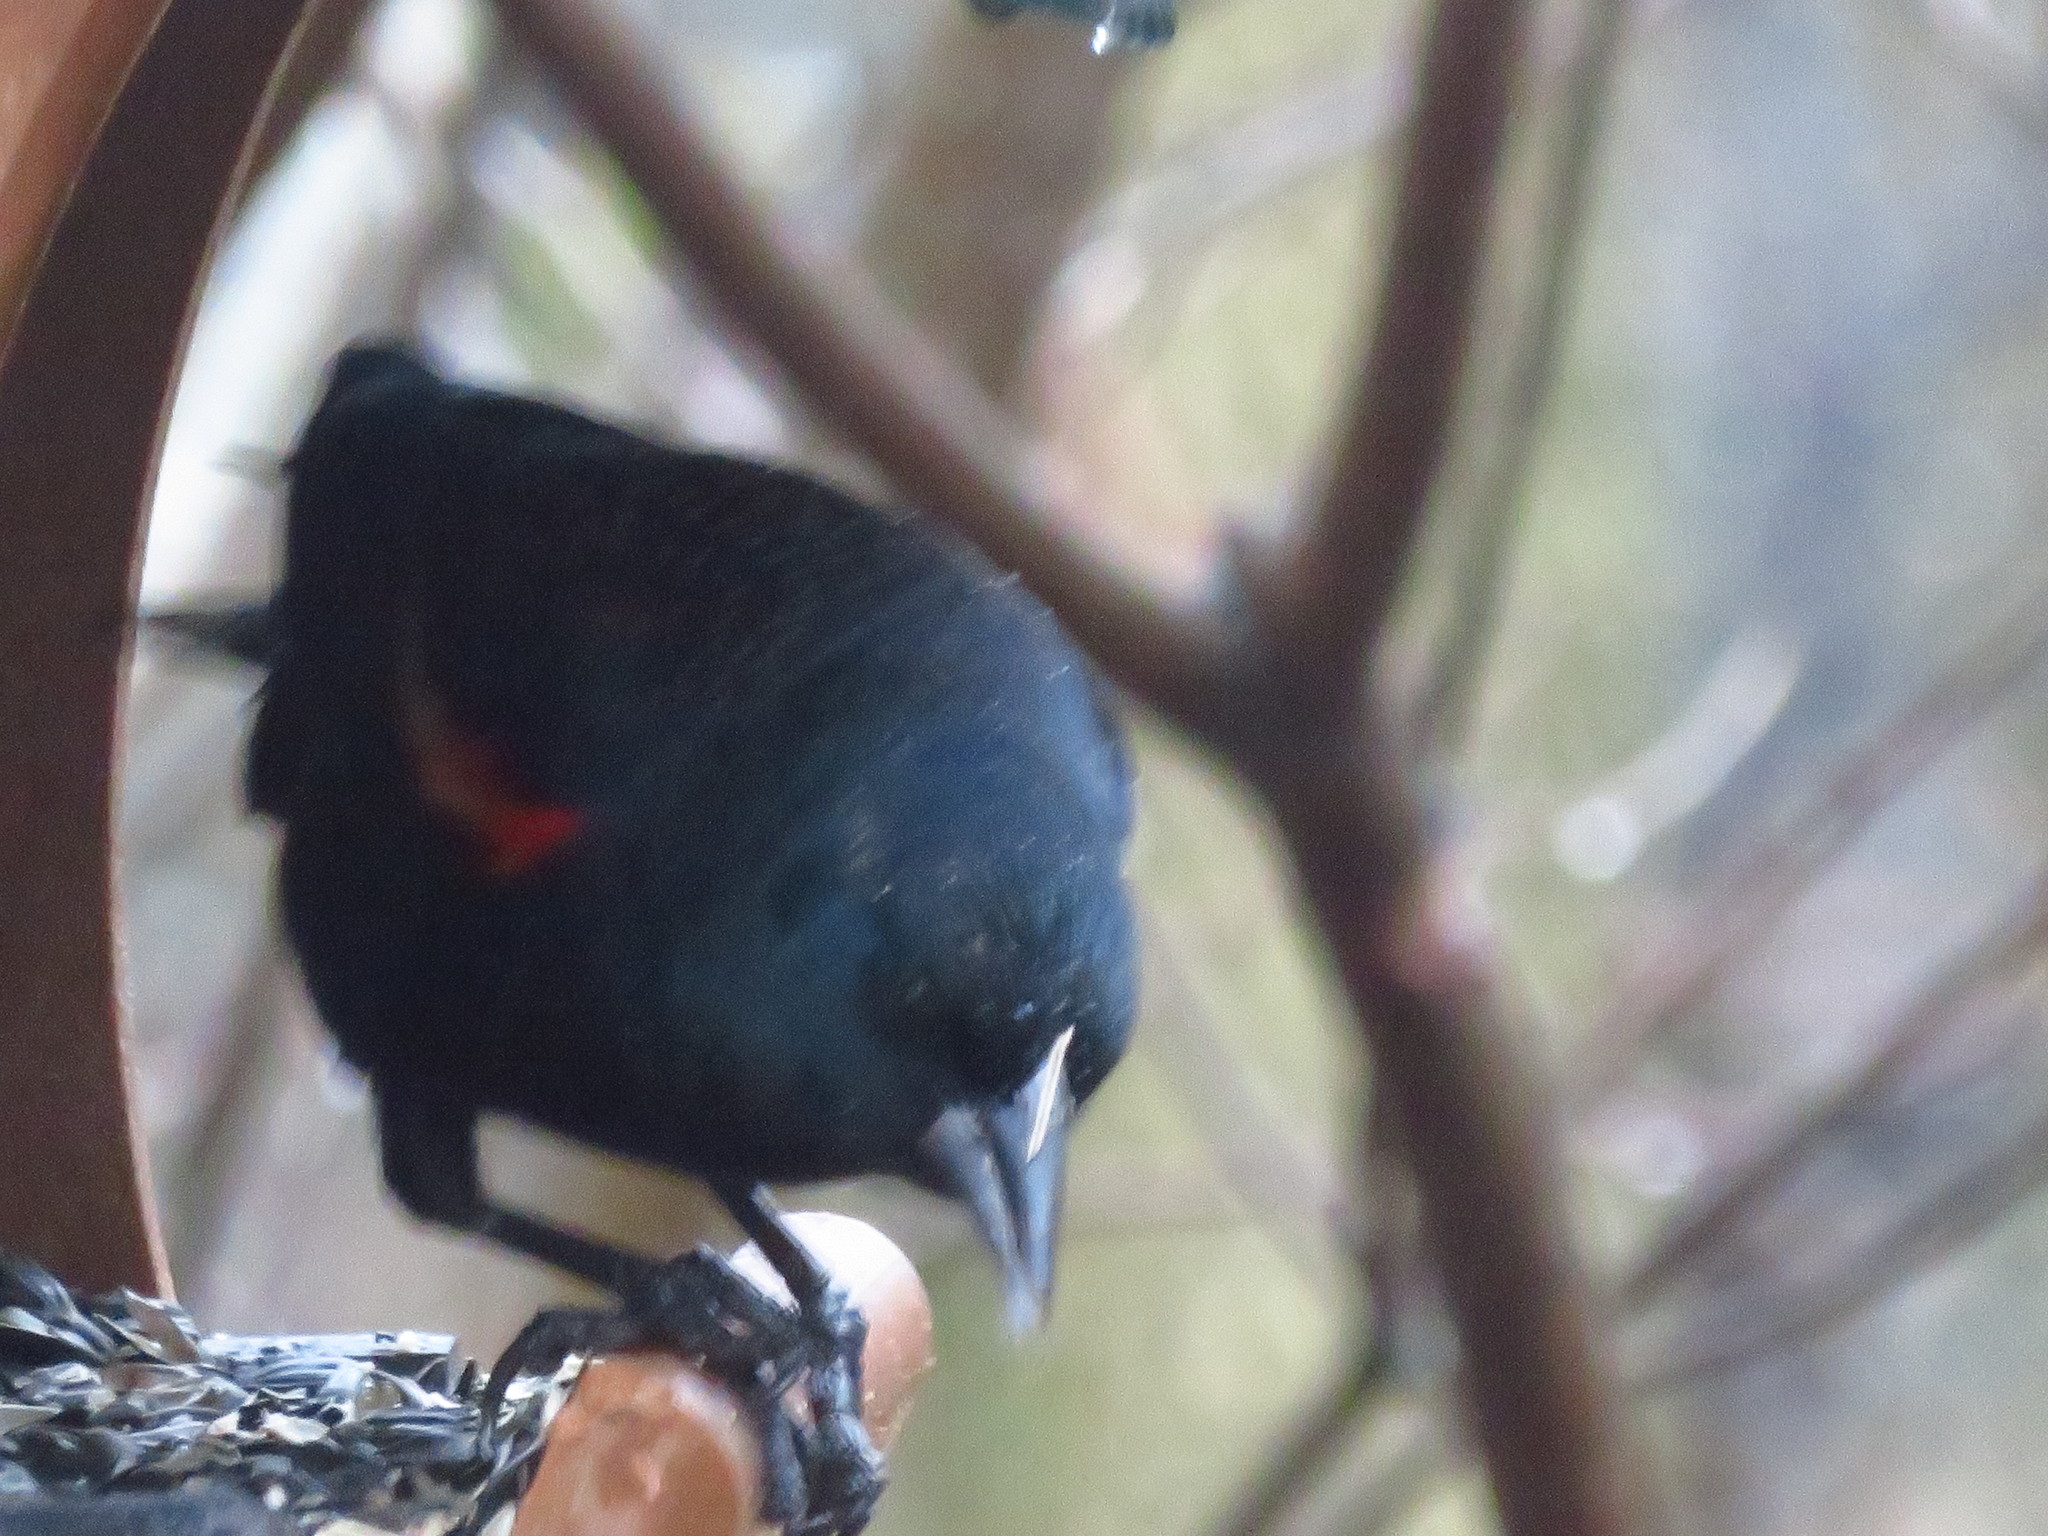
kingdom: Animalia
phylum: Chordata
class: Aves
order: Passeriformes
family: Icteridae
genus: Agelaius
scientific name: Agelaius phoeniceus
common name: Red-winged blackbird
